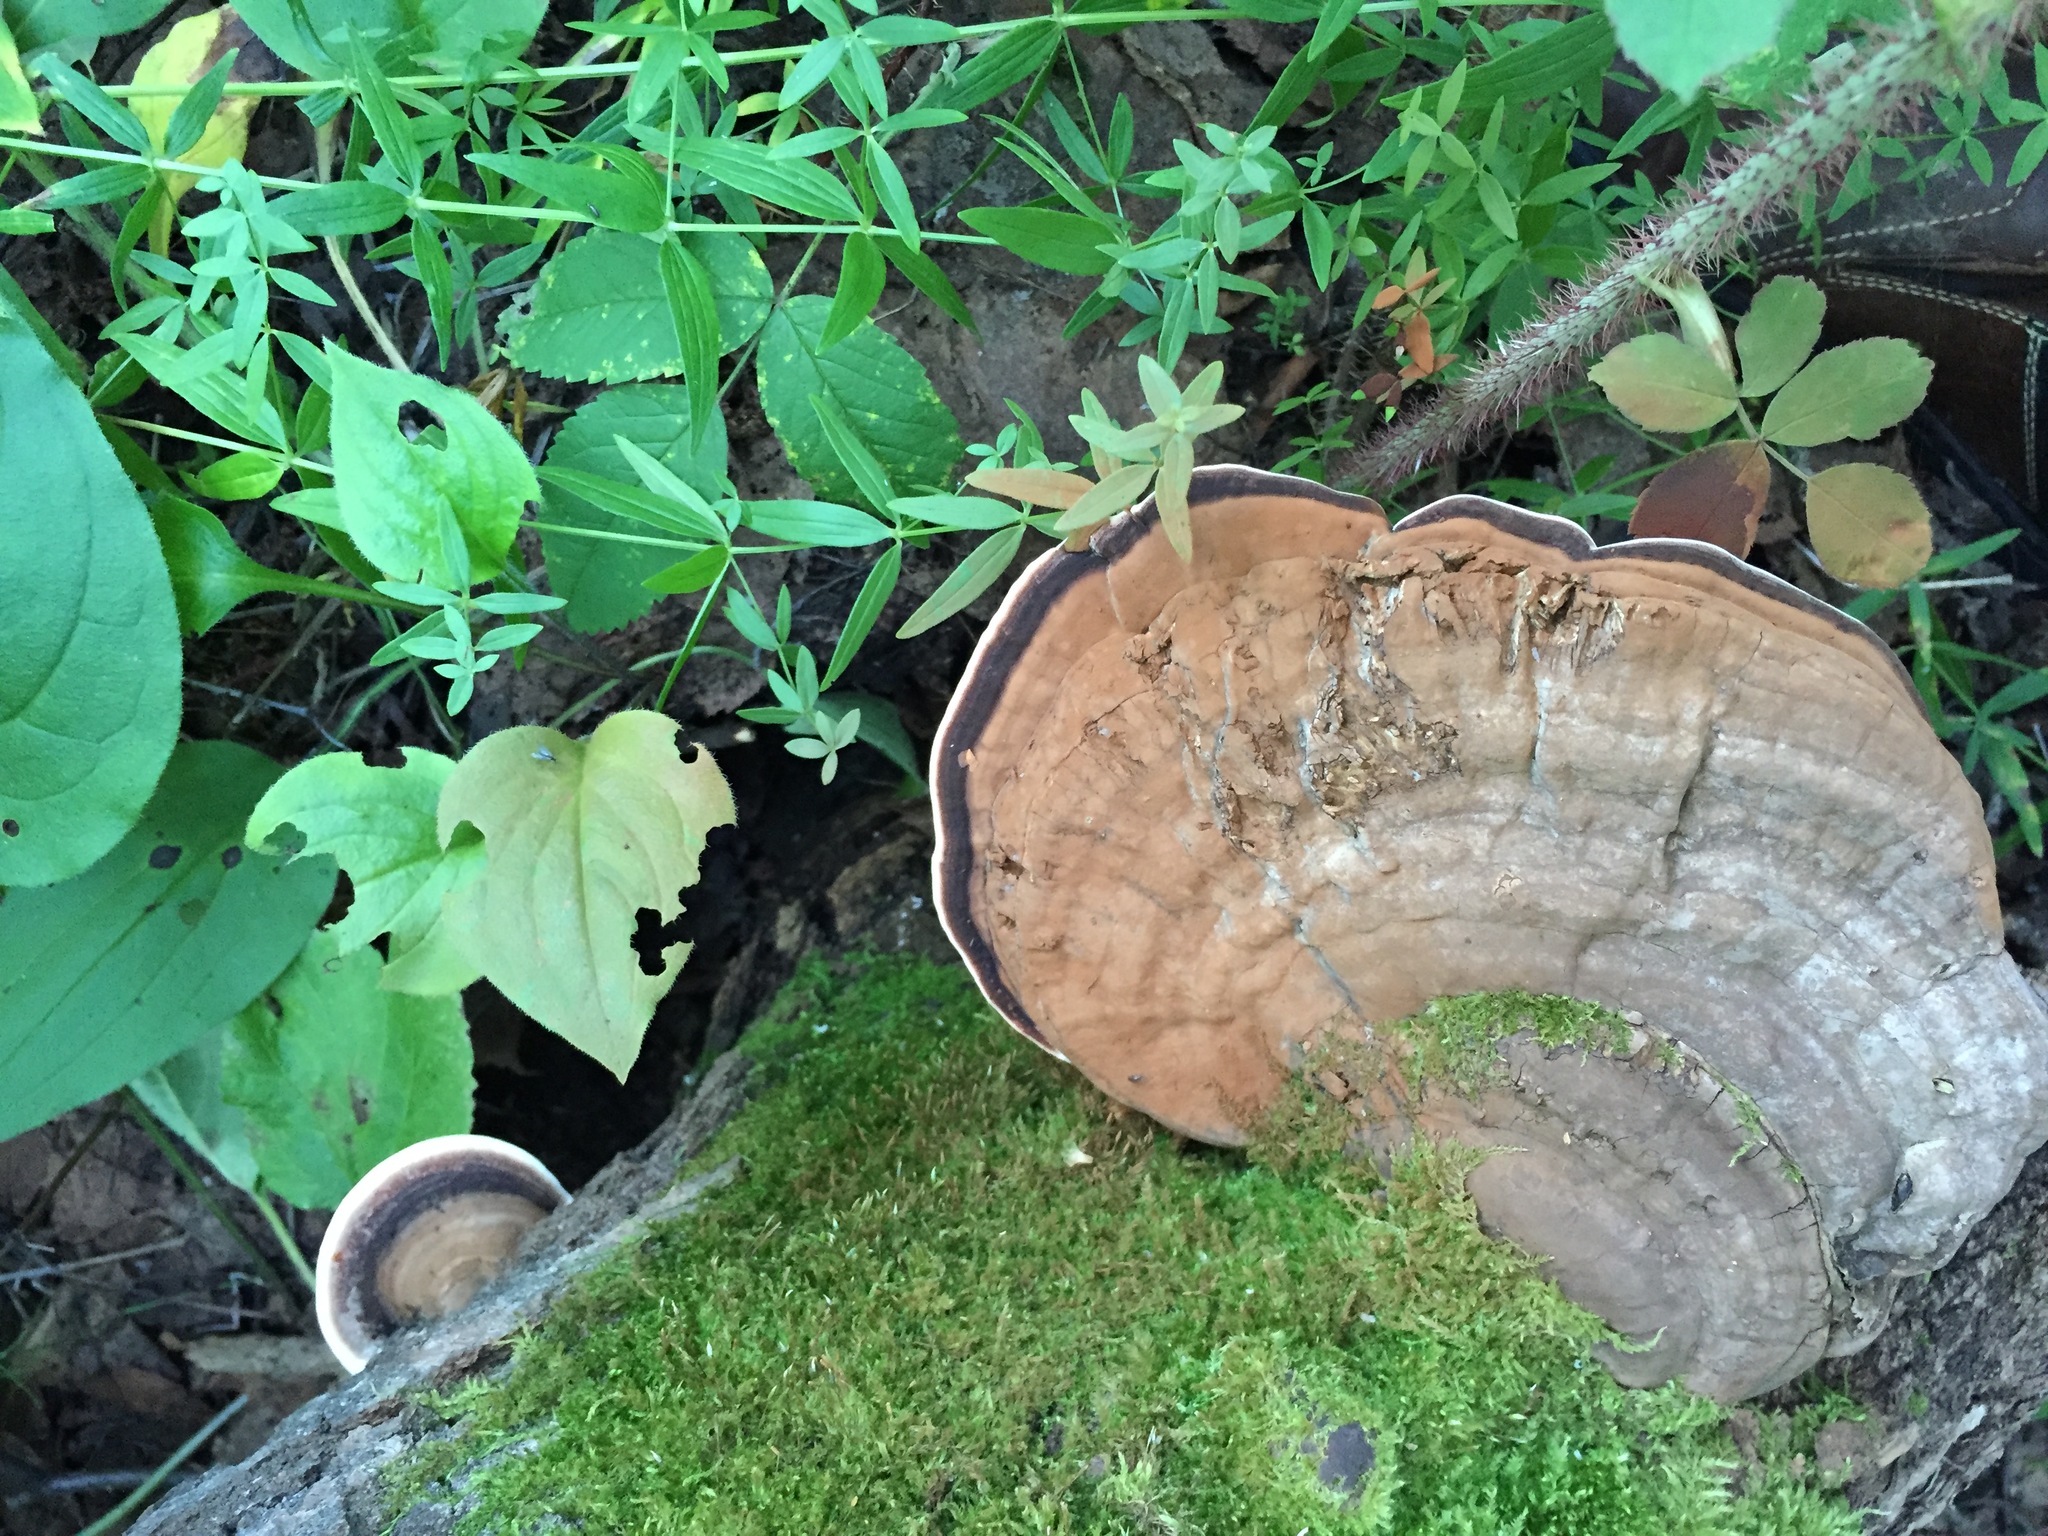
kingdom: Fungi
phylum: Basidiomycota
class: Agaricomycetes
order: Polyporales
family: Polyporaceae
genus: Ganoderma
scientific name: Ganoderma applanatum
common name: Artist's bracket
